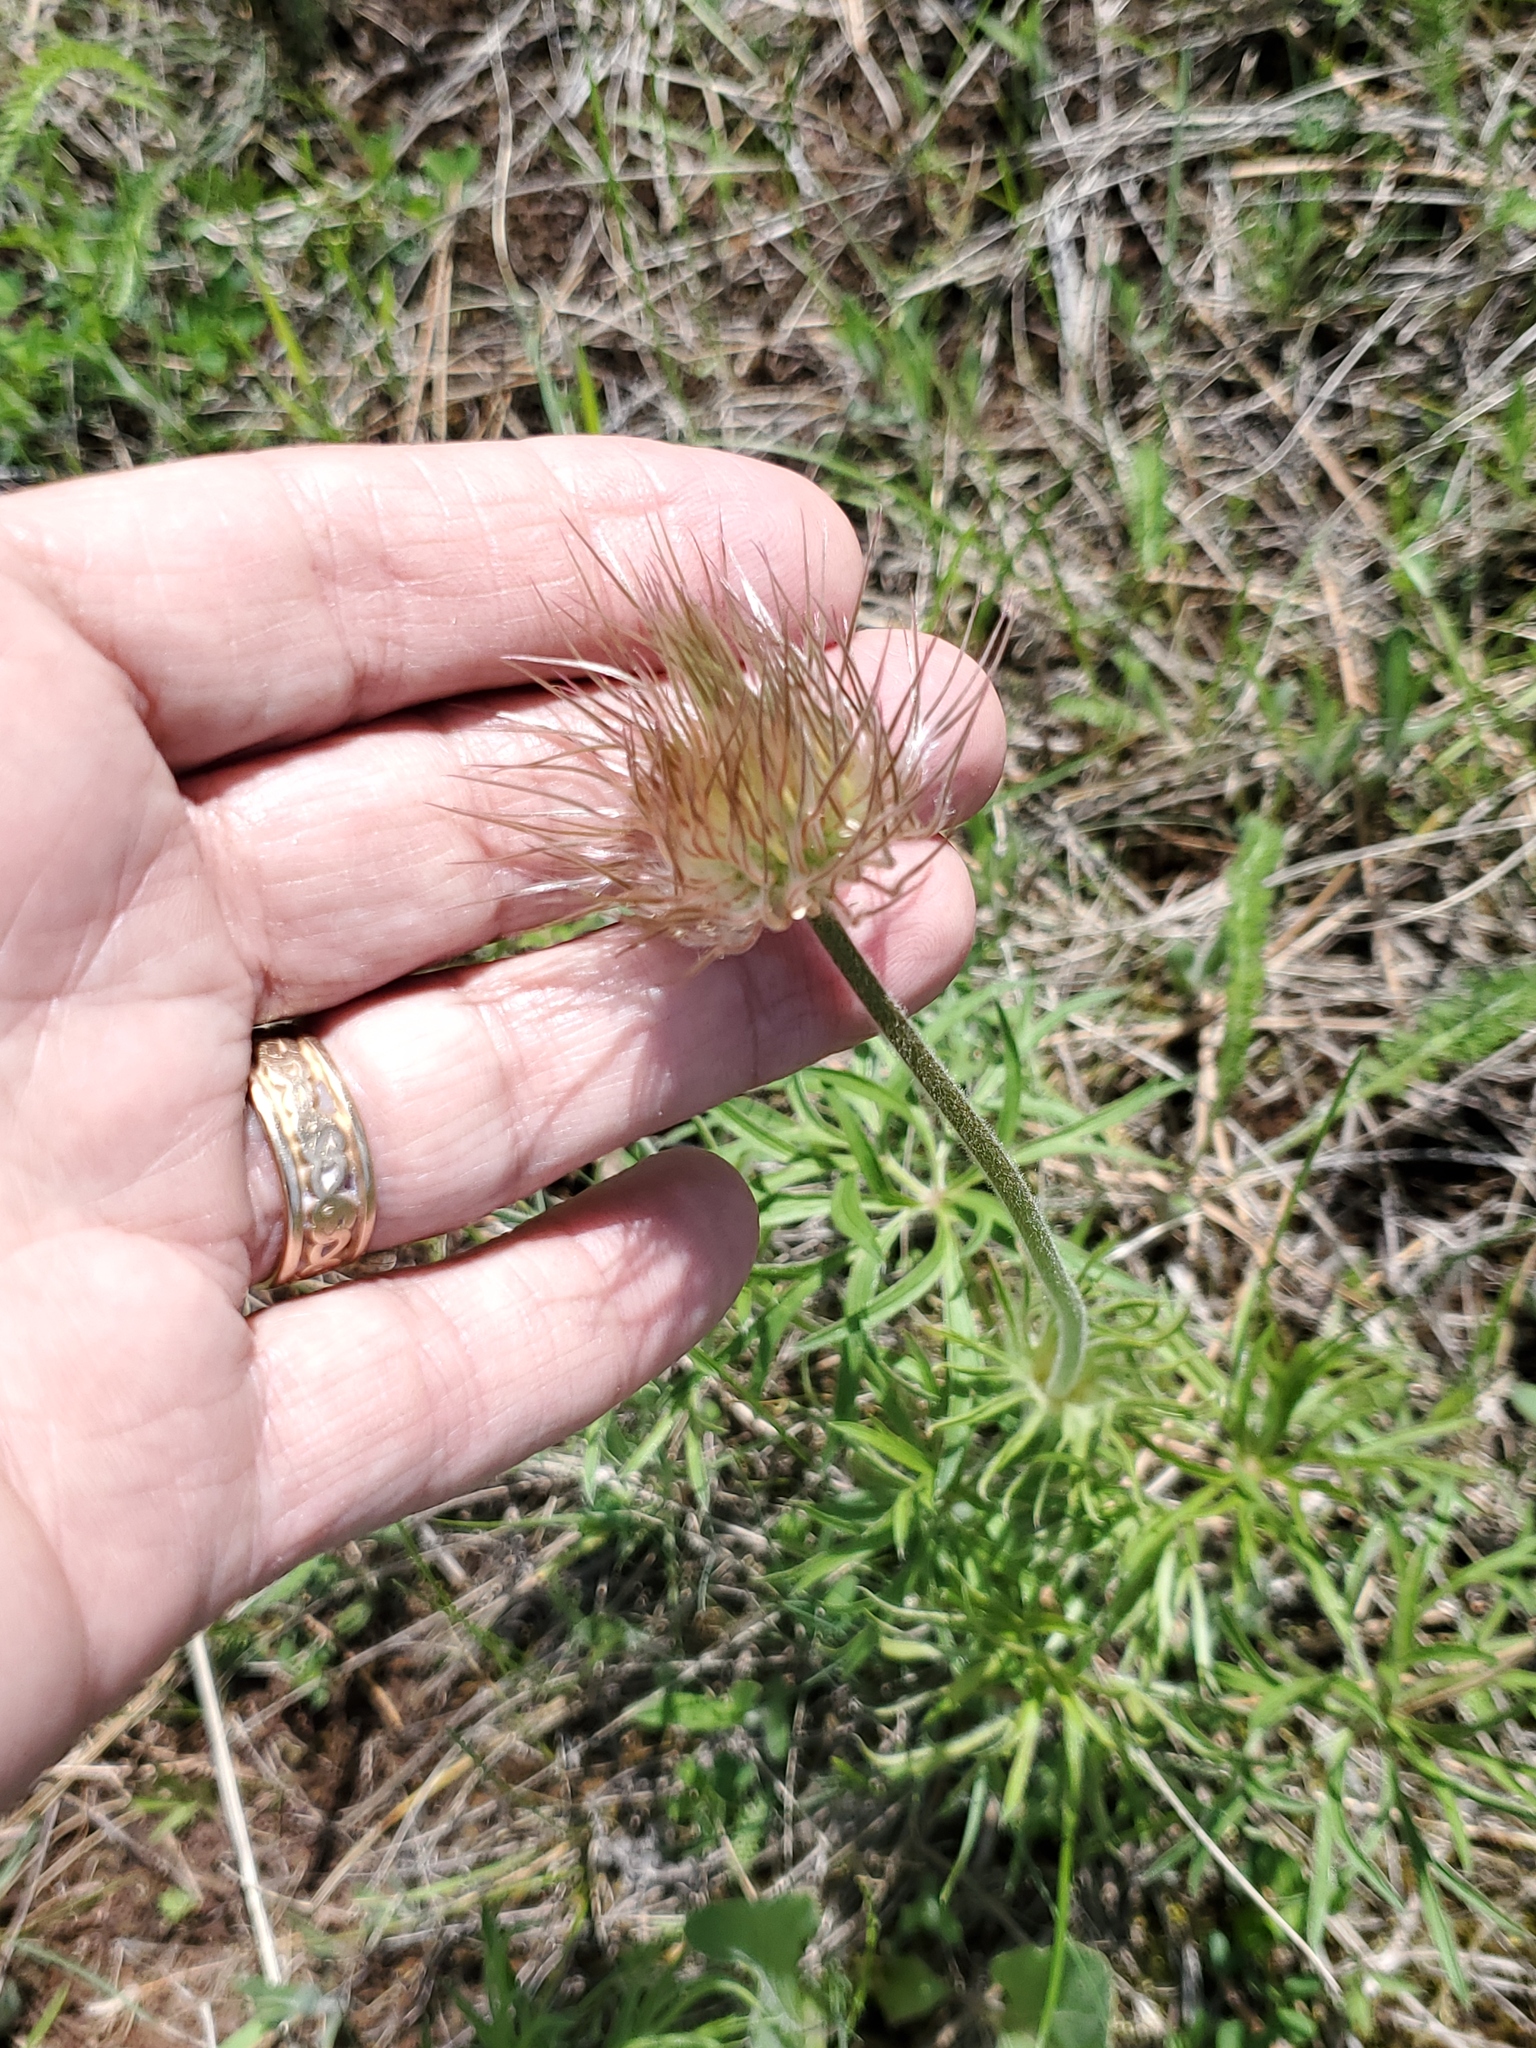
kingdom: Plantae
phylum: Tracheophyta
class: Magnoliopsida
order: Ranunculales
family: Ranunculaceae
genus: Pulsatilla
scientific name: Pulsatilla nuttalliana
